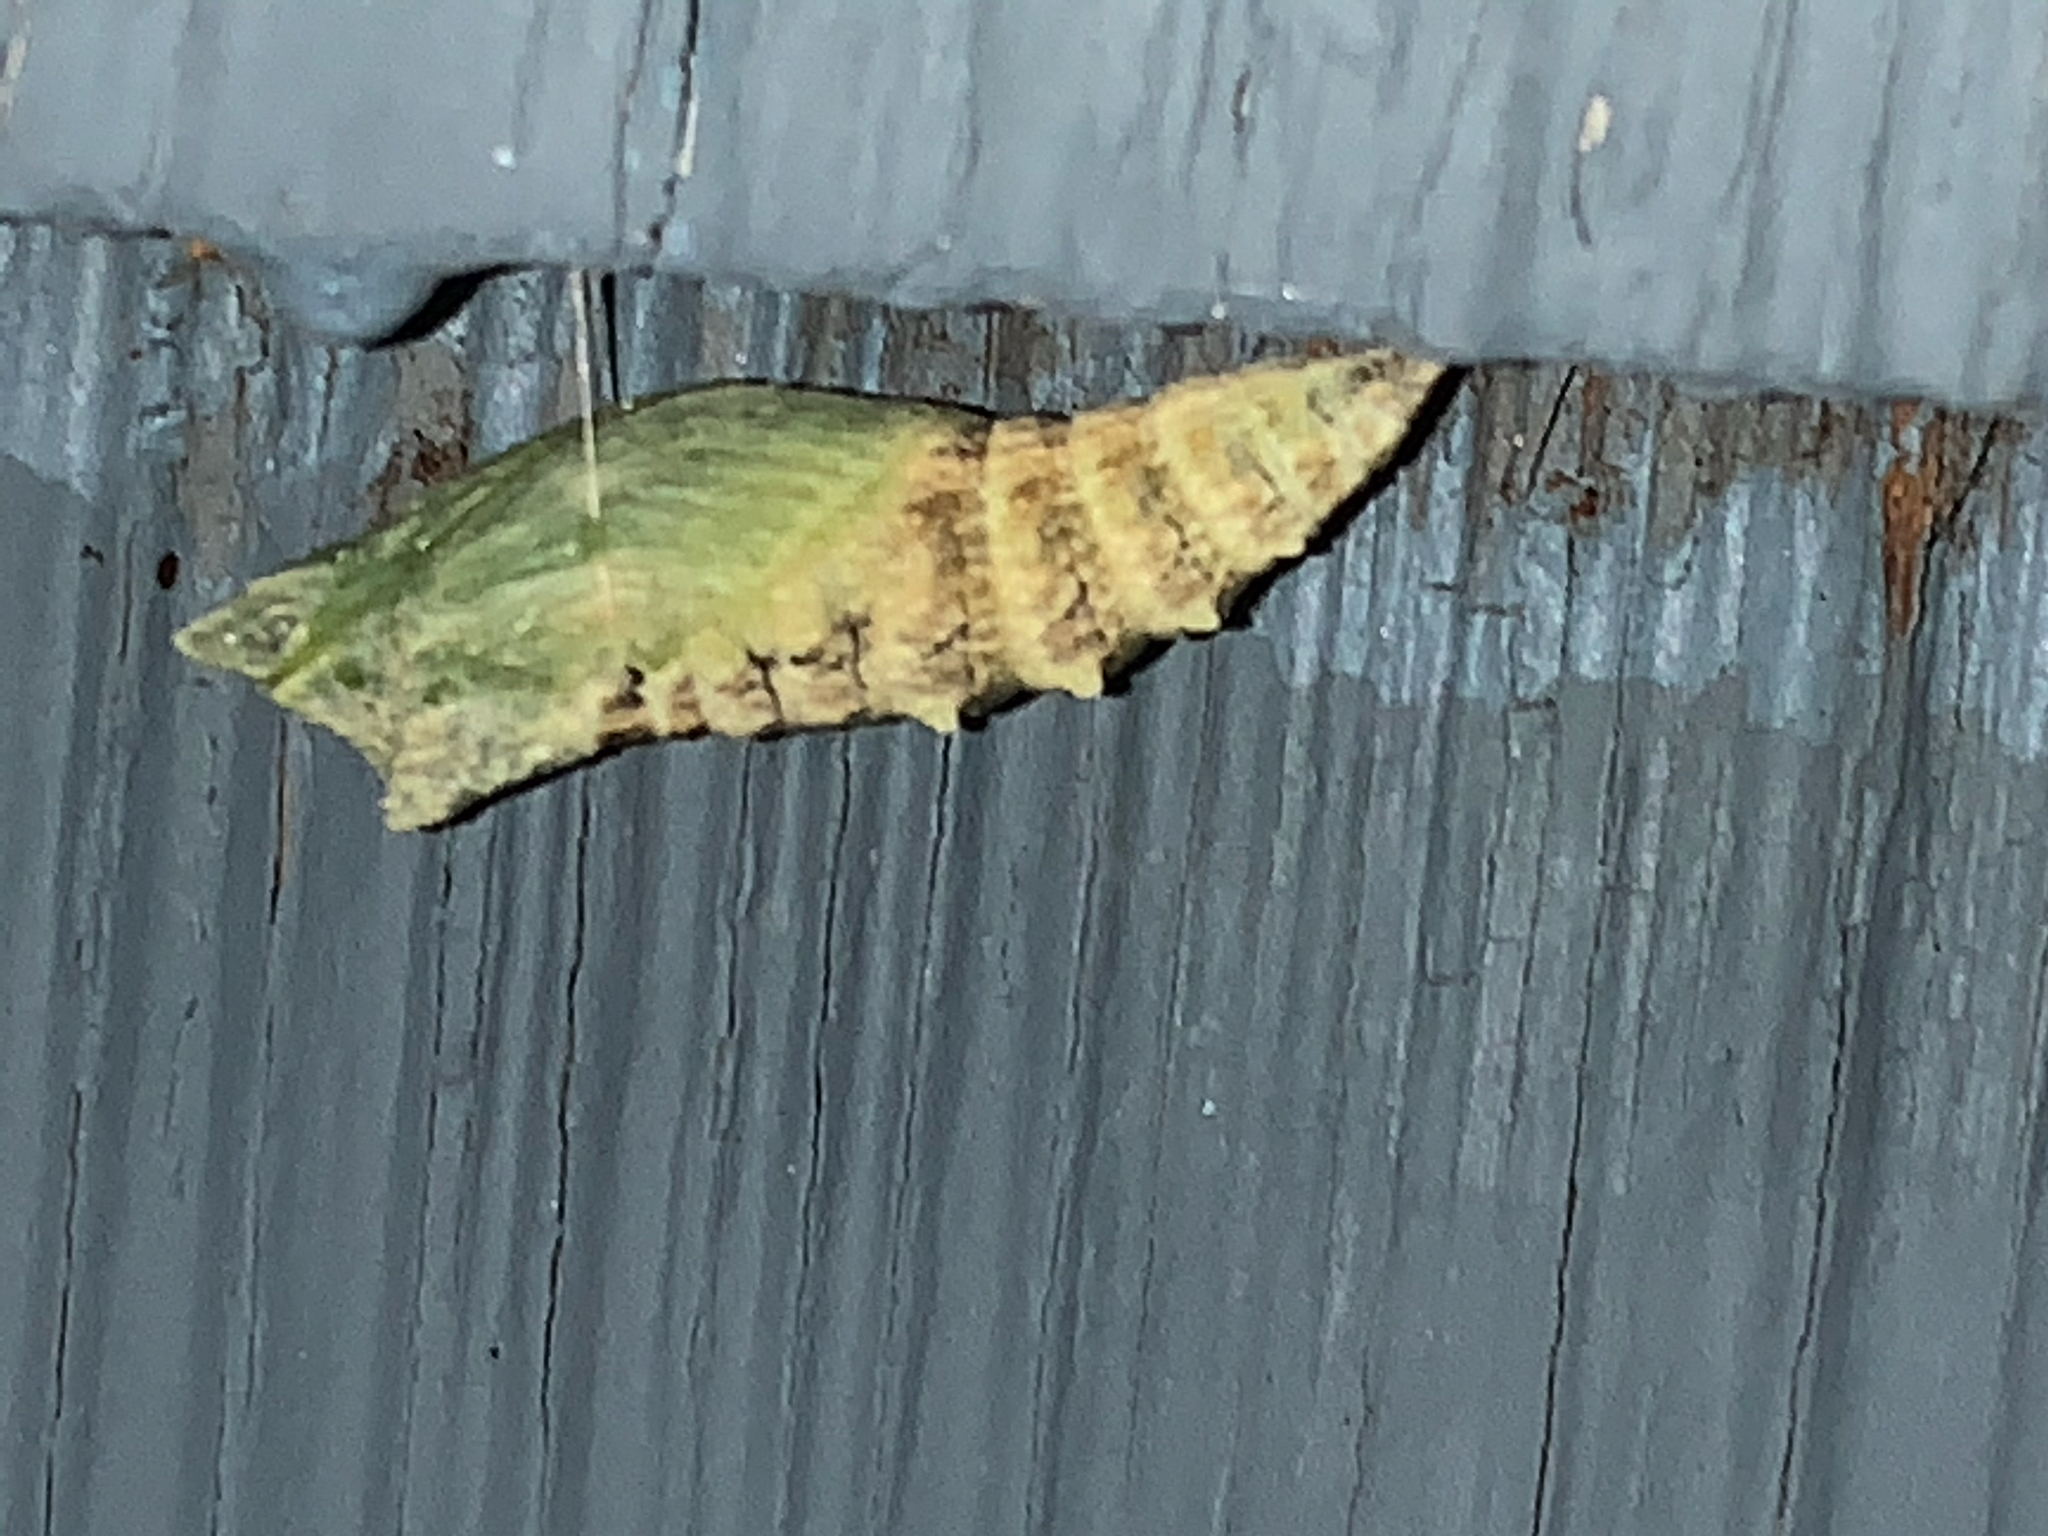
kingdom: Animalia
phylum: Arthropoda
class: Insecta
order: Lepidoptera
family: Papilionidae
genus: Papilio
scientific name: Papilio polyxenes
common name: Black swallowtail
